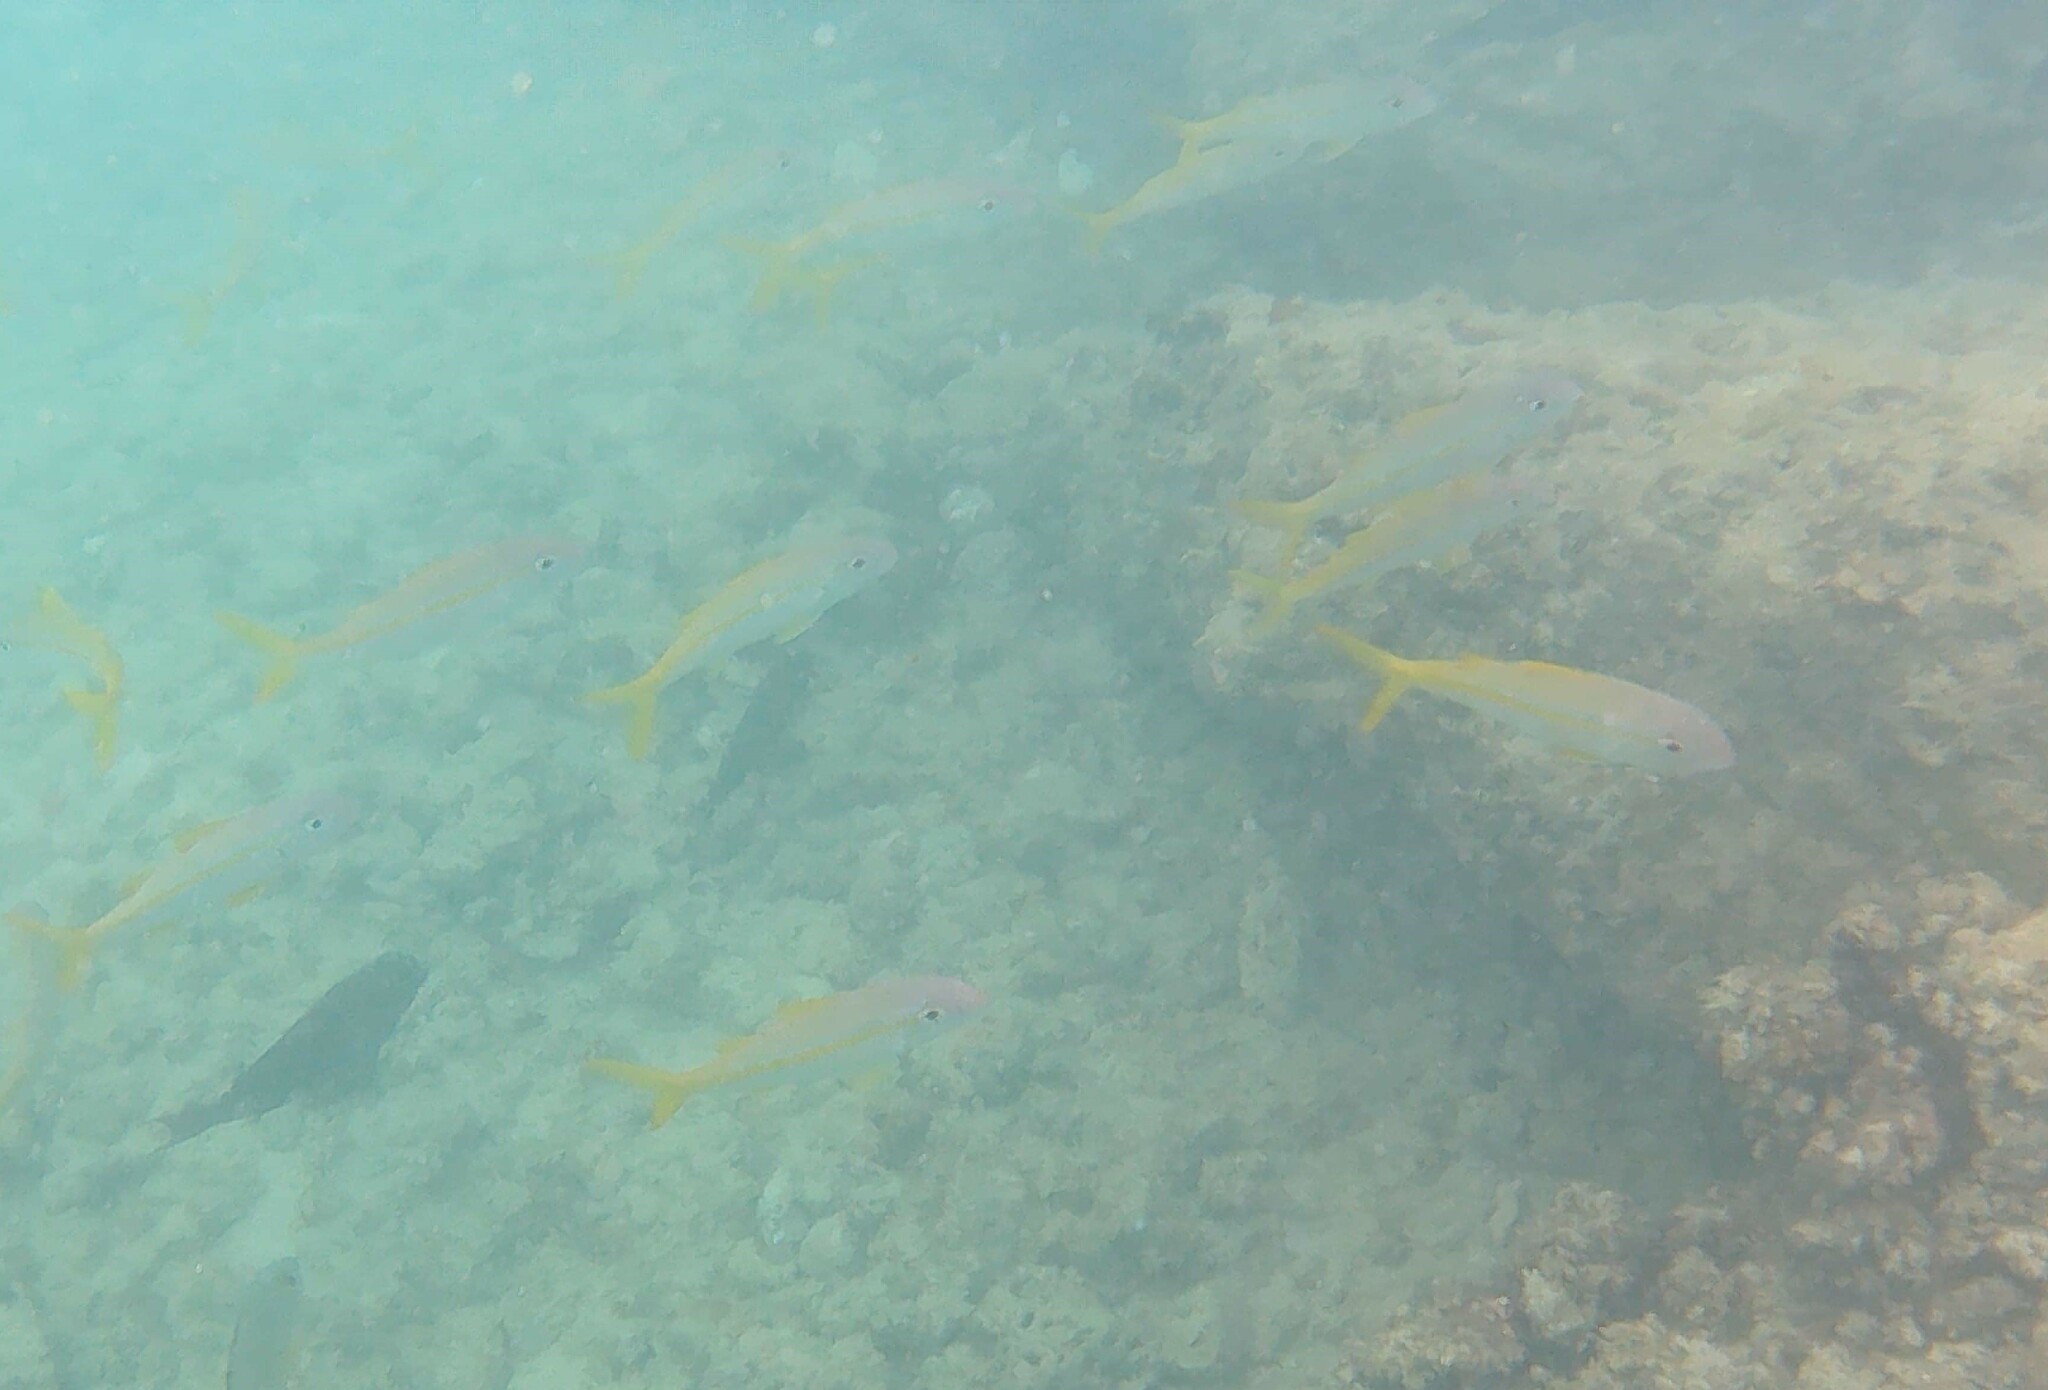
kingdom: Animalia
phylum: Chordata
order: Perciformes
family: Mullidae
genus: Mulloidichthys
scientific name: Mulloidichthys vanicolensis
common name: Yellowfin goatfish
